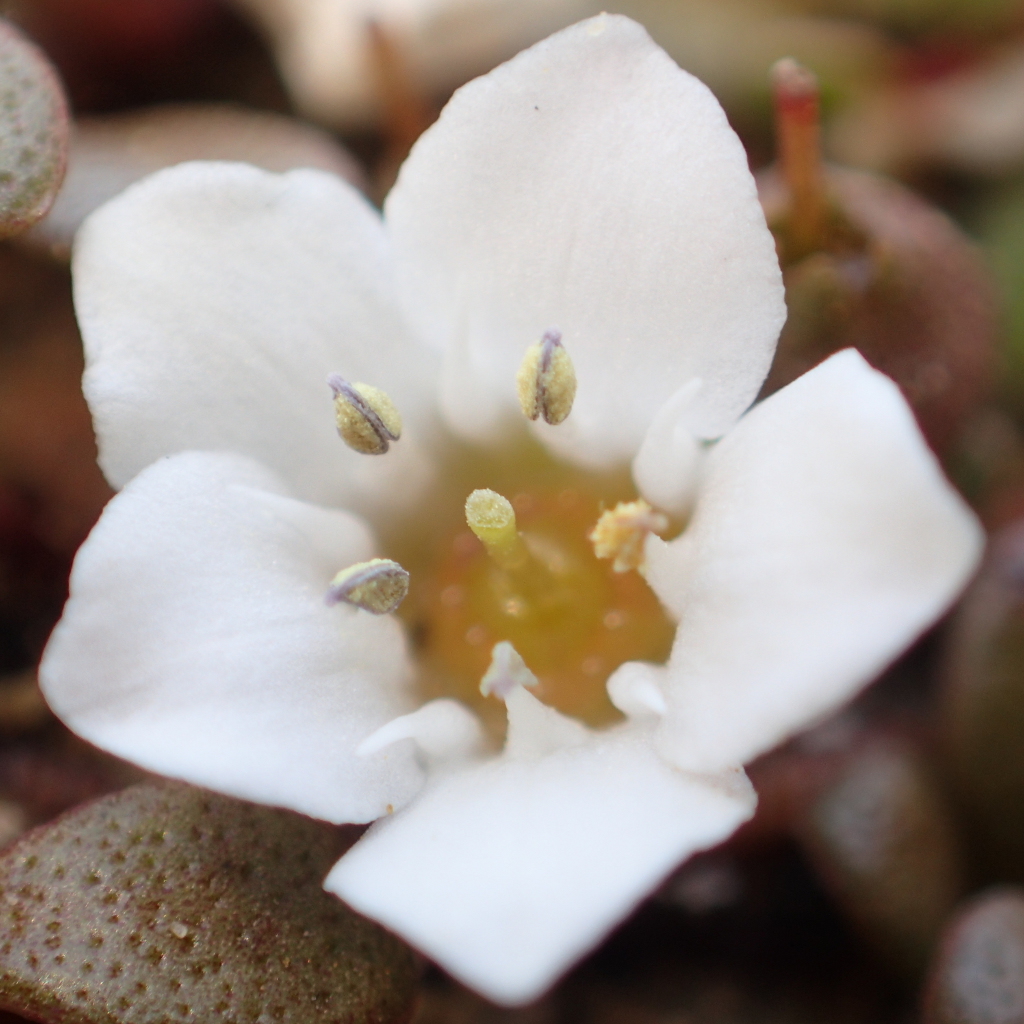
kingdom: Plantae
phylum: Tracheophyta
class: Magnoliopsida
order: Ericales
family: Primulaceae
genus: Samolus
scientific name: Samolus repens
